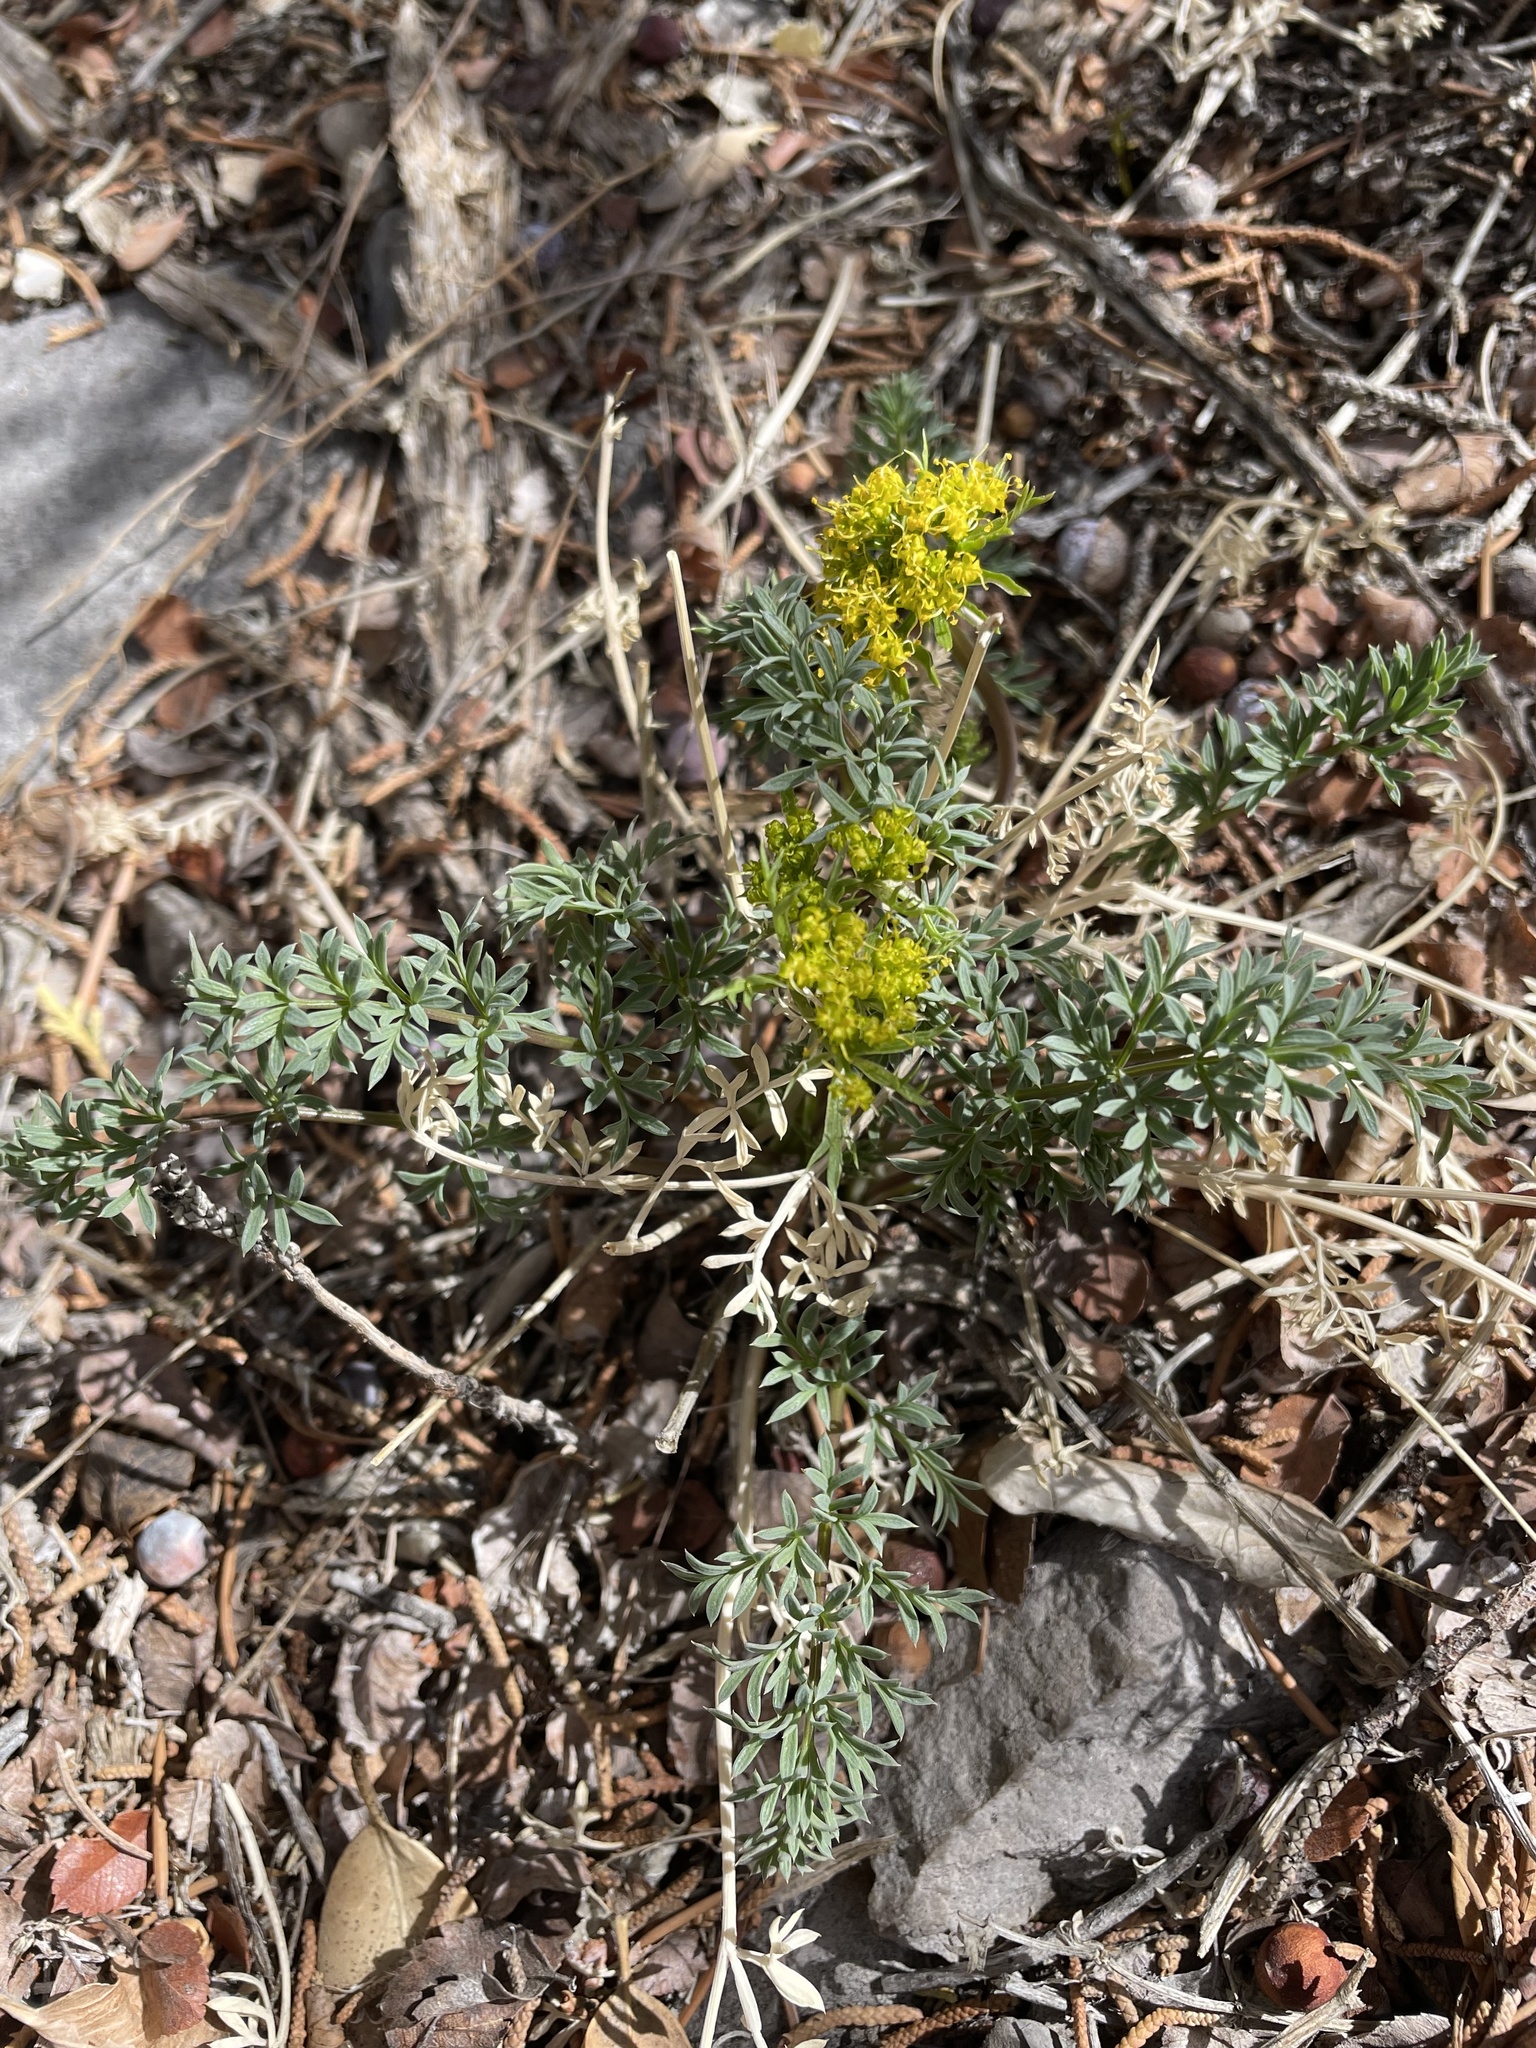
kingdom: Plantae
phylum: Tracheophyta
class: Magnoliopsida
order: Apiales
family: Apiaceae
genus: Lomatium
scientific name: Lomatium parryi
